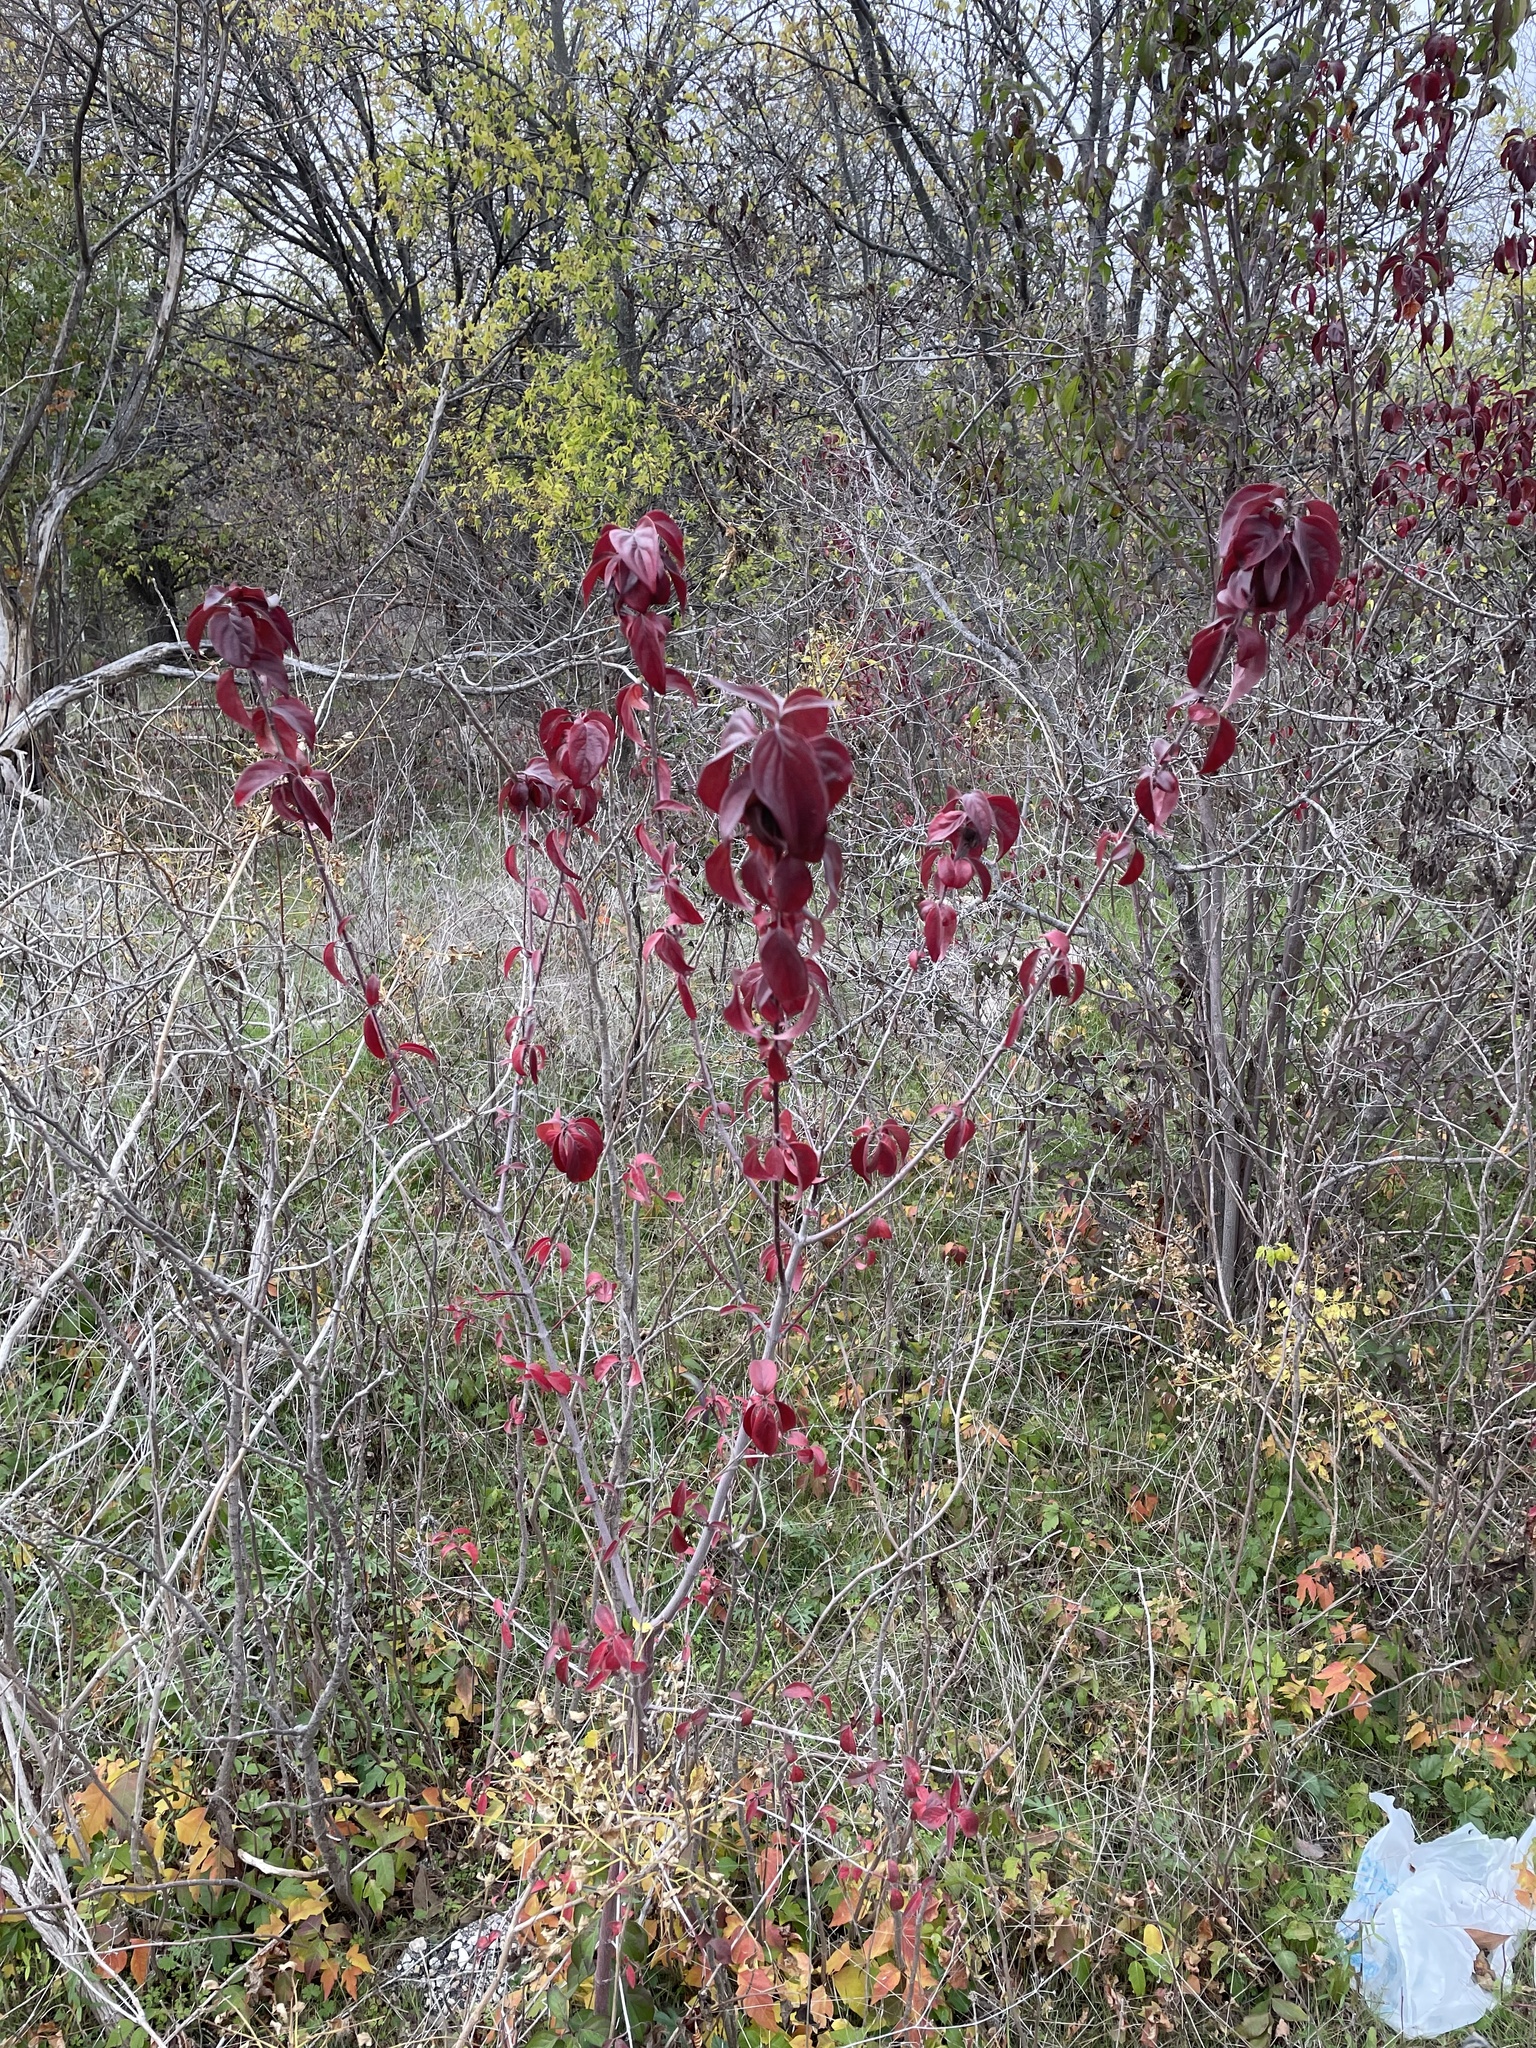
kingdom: Plantae
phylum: Tracheophyta
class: Magnoliopsida
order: Cornales
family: Cornaceae
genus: Cornus
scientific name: Cornus drummondii
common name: Rough-leaf dogwood
